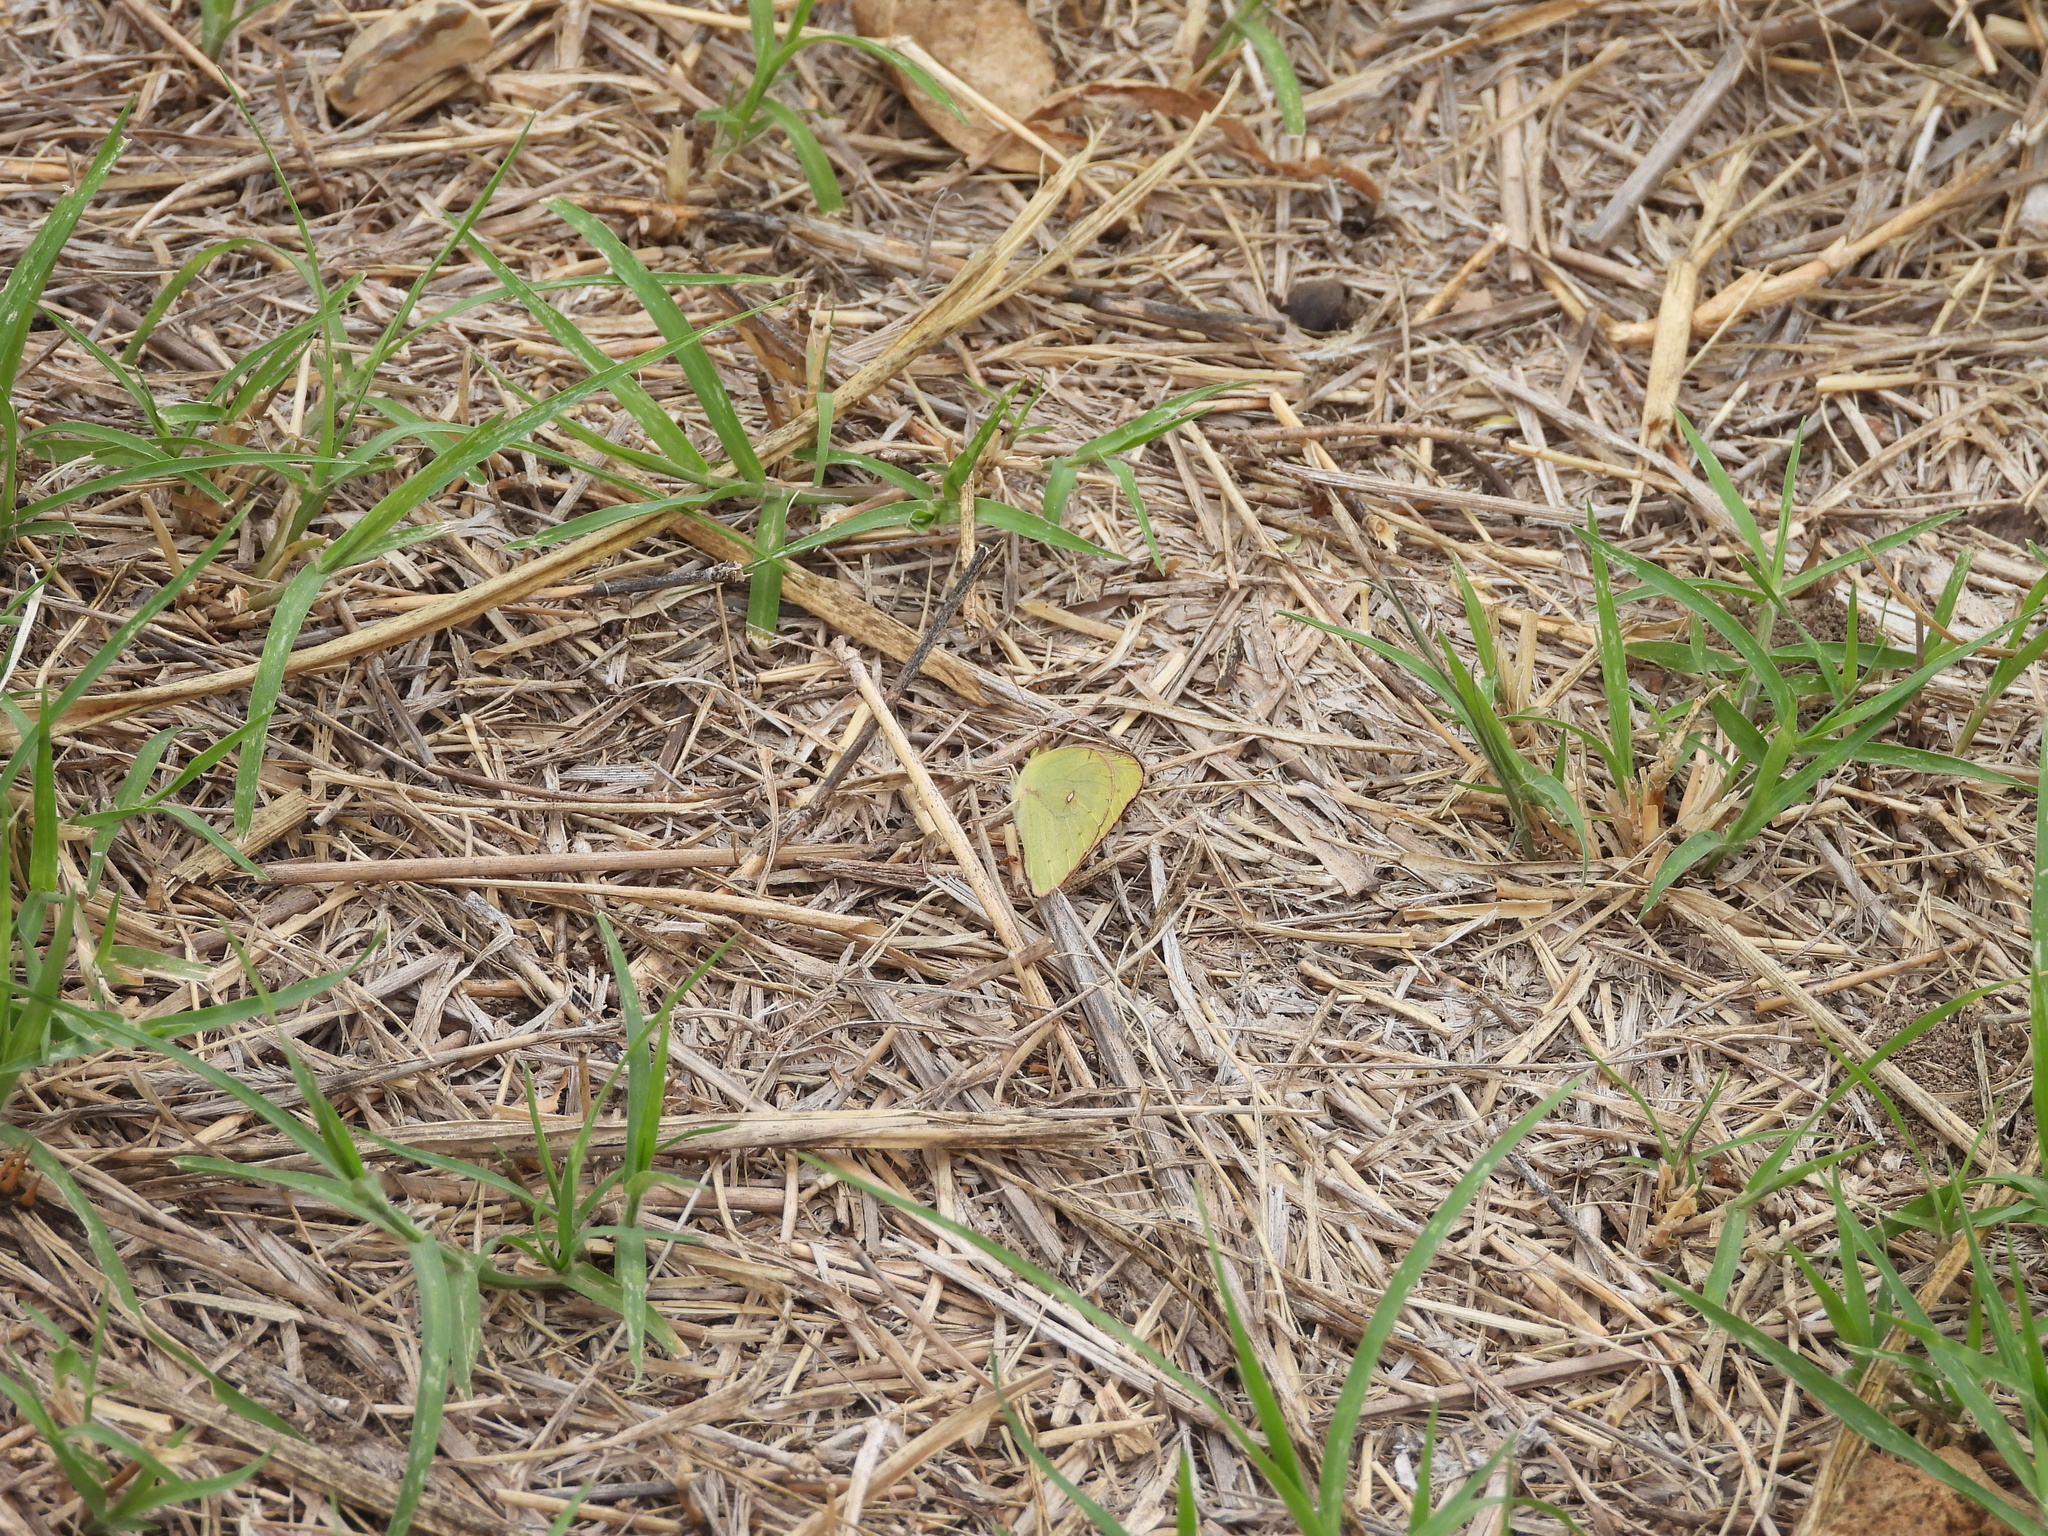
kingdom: Animalia
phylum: Arthropoda
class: Insecta
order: Lepidoptera
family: Pieridae
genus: Colias
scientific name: Colias lesbia
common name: Lesbia clouded yellow
